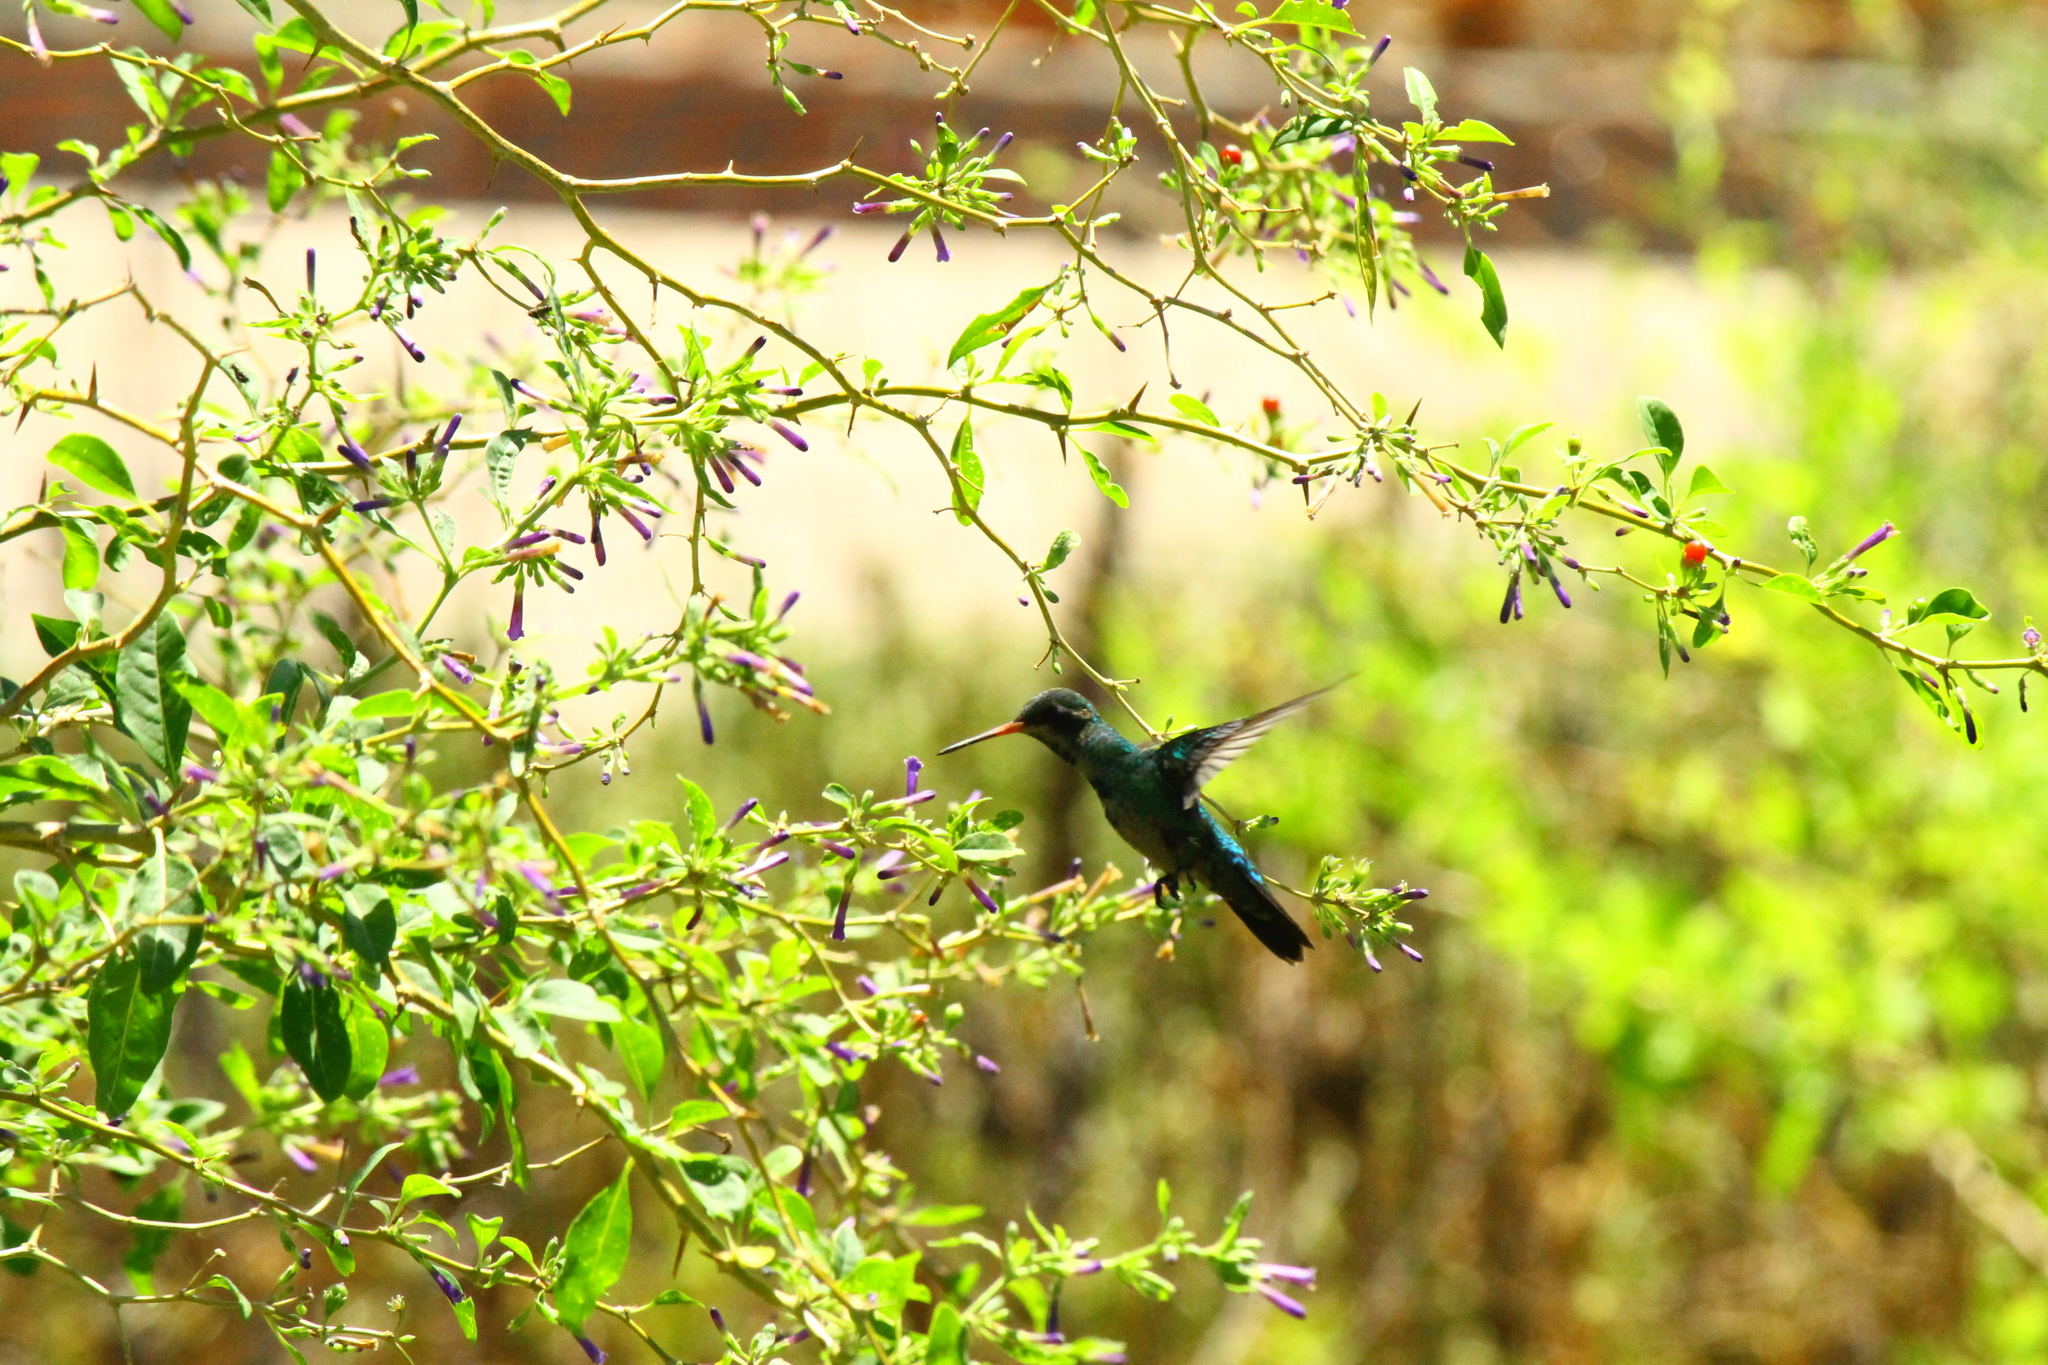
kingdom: Animalia
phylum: Chordata
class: Aves
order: Apodiformes
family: Trochilidae
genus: Chlorostilbon
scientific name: Chlorostilbon lucidus
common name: Glittering-bellied emerald
